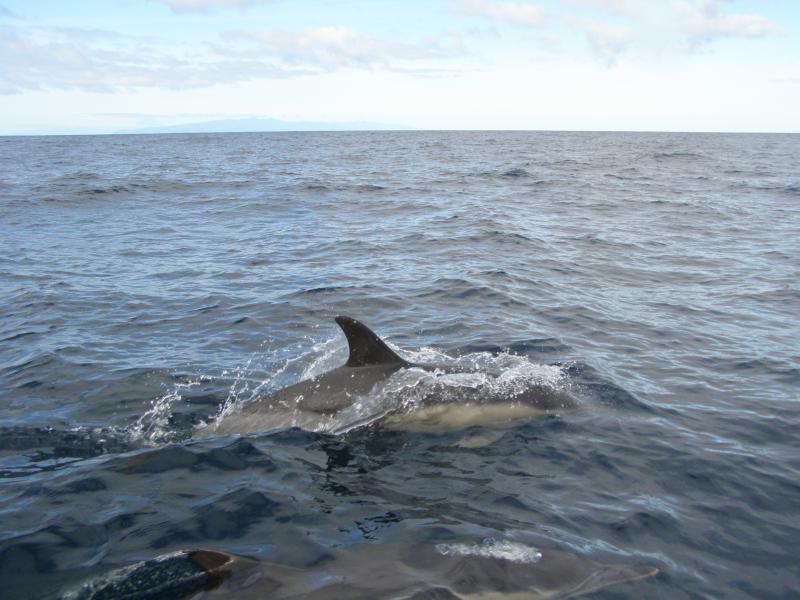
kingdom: Animalia
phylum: Chordata
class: Mammalia
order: Cetacea
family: Delphinidae
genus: Delphinus
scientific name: Delphinus delphis
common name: Common dolphin
